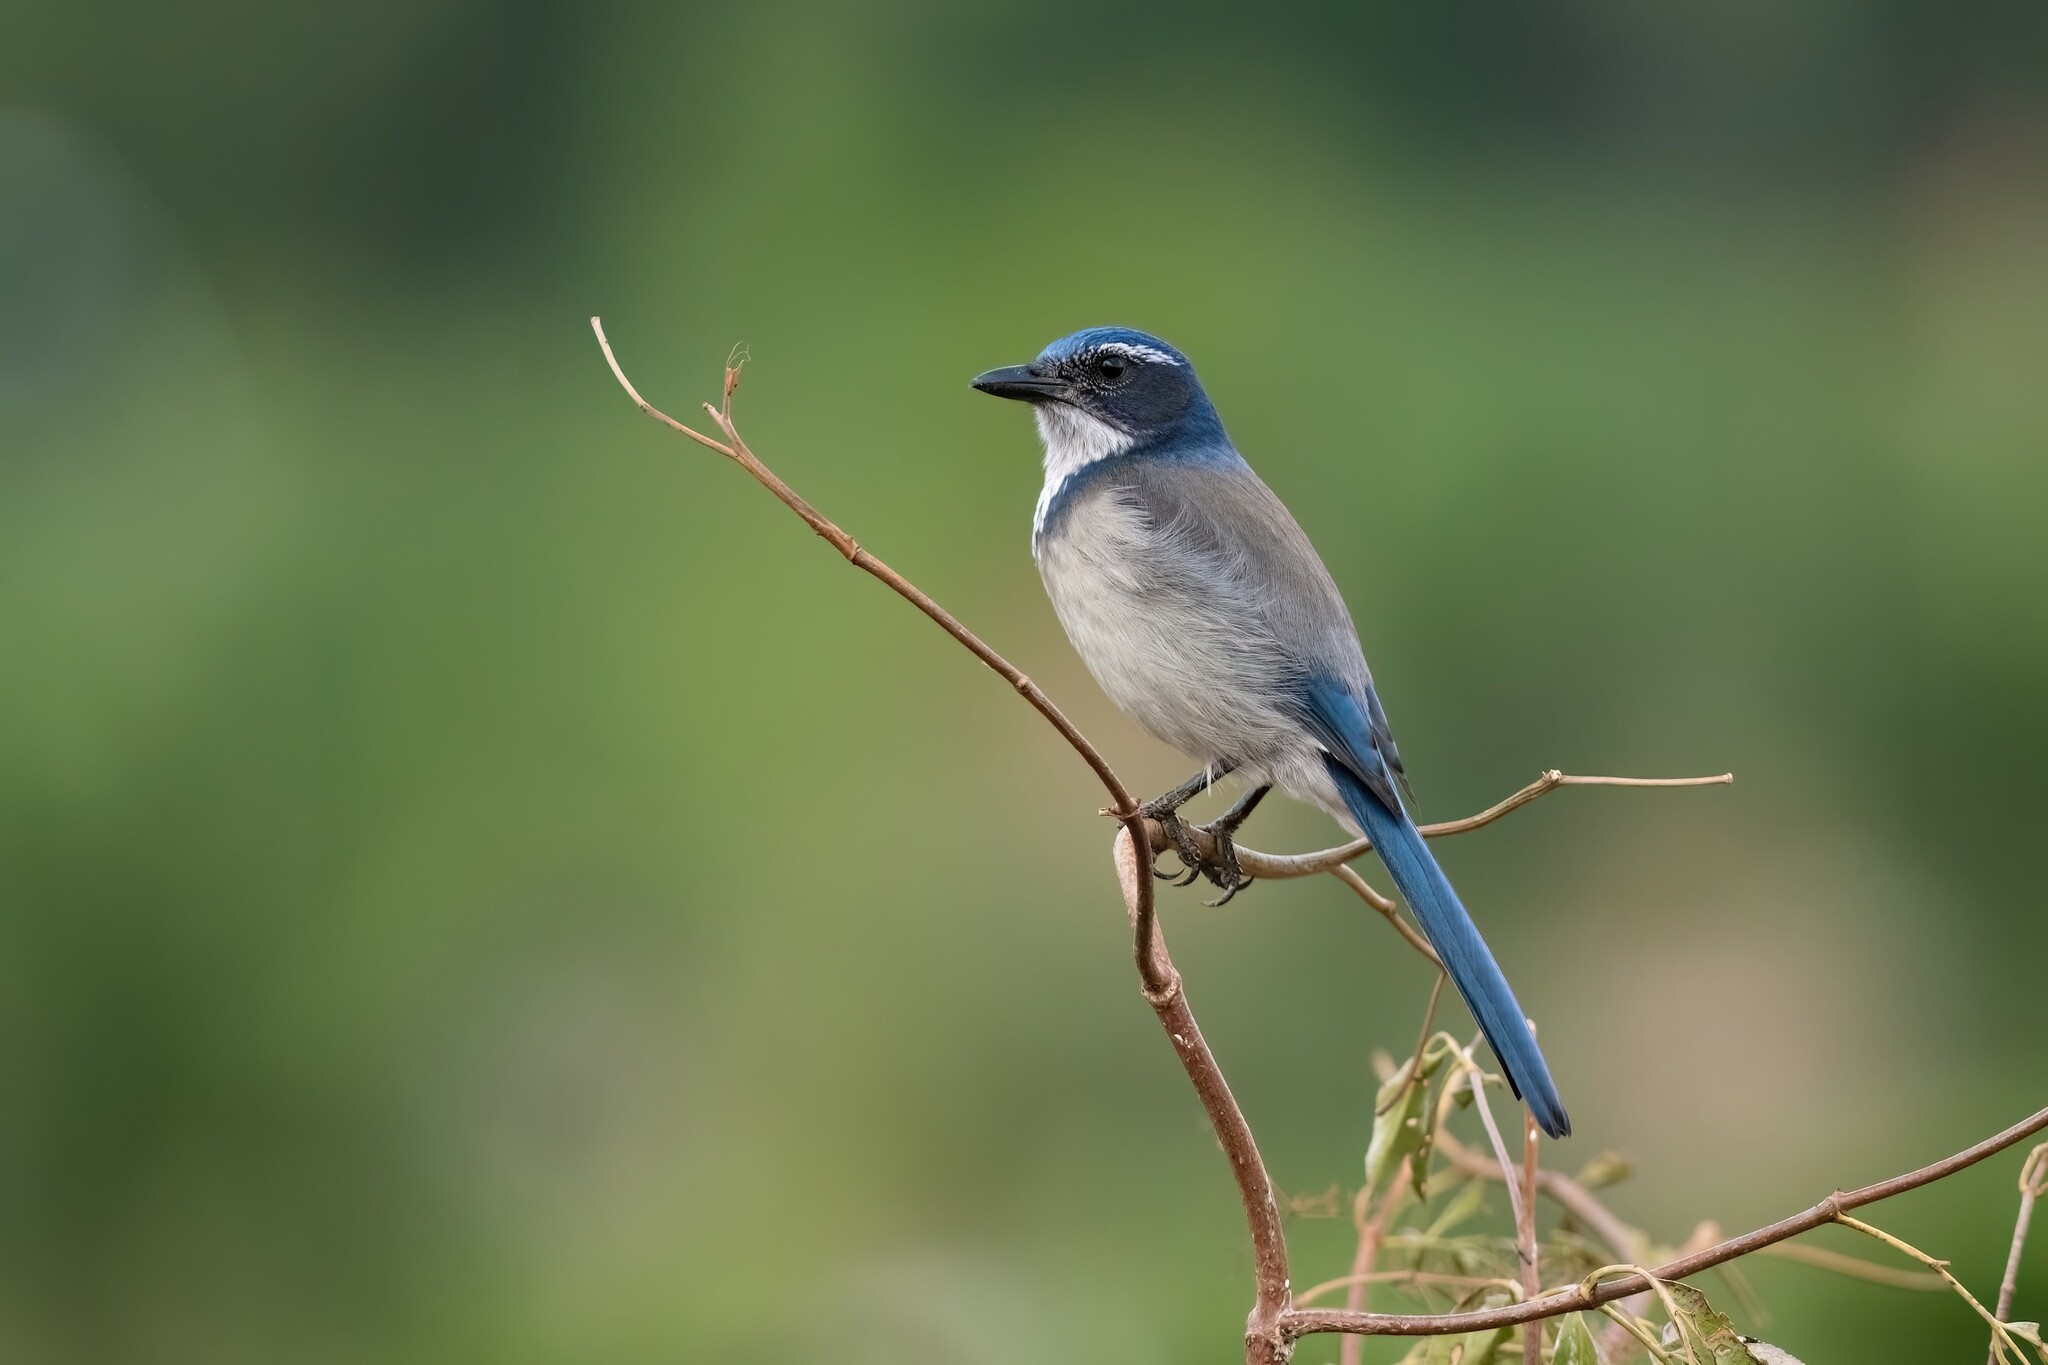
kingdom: Animalia
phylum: Chordata
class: Aves
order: Passeriformes
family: Corvidae
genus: Aphelocoma
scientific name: Aphelocoma californica
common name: California scrub-jay
